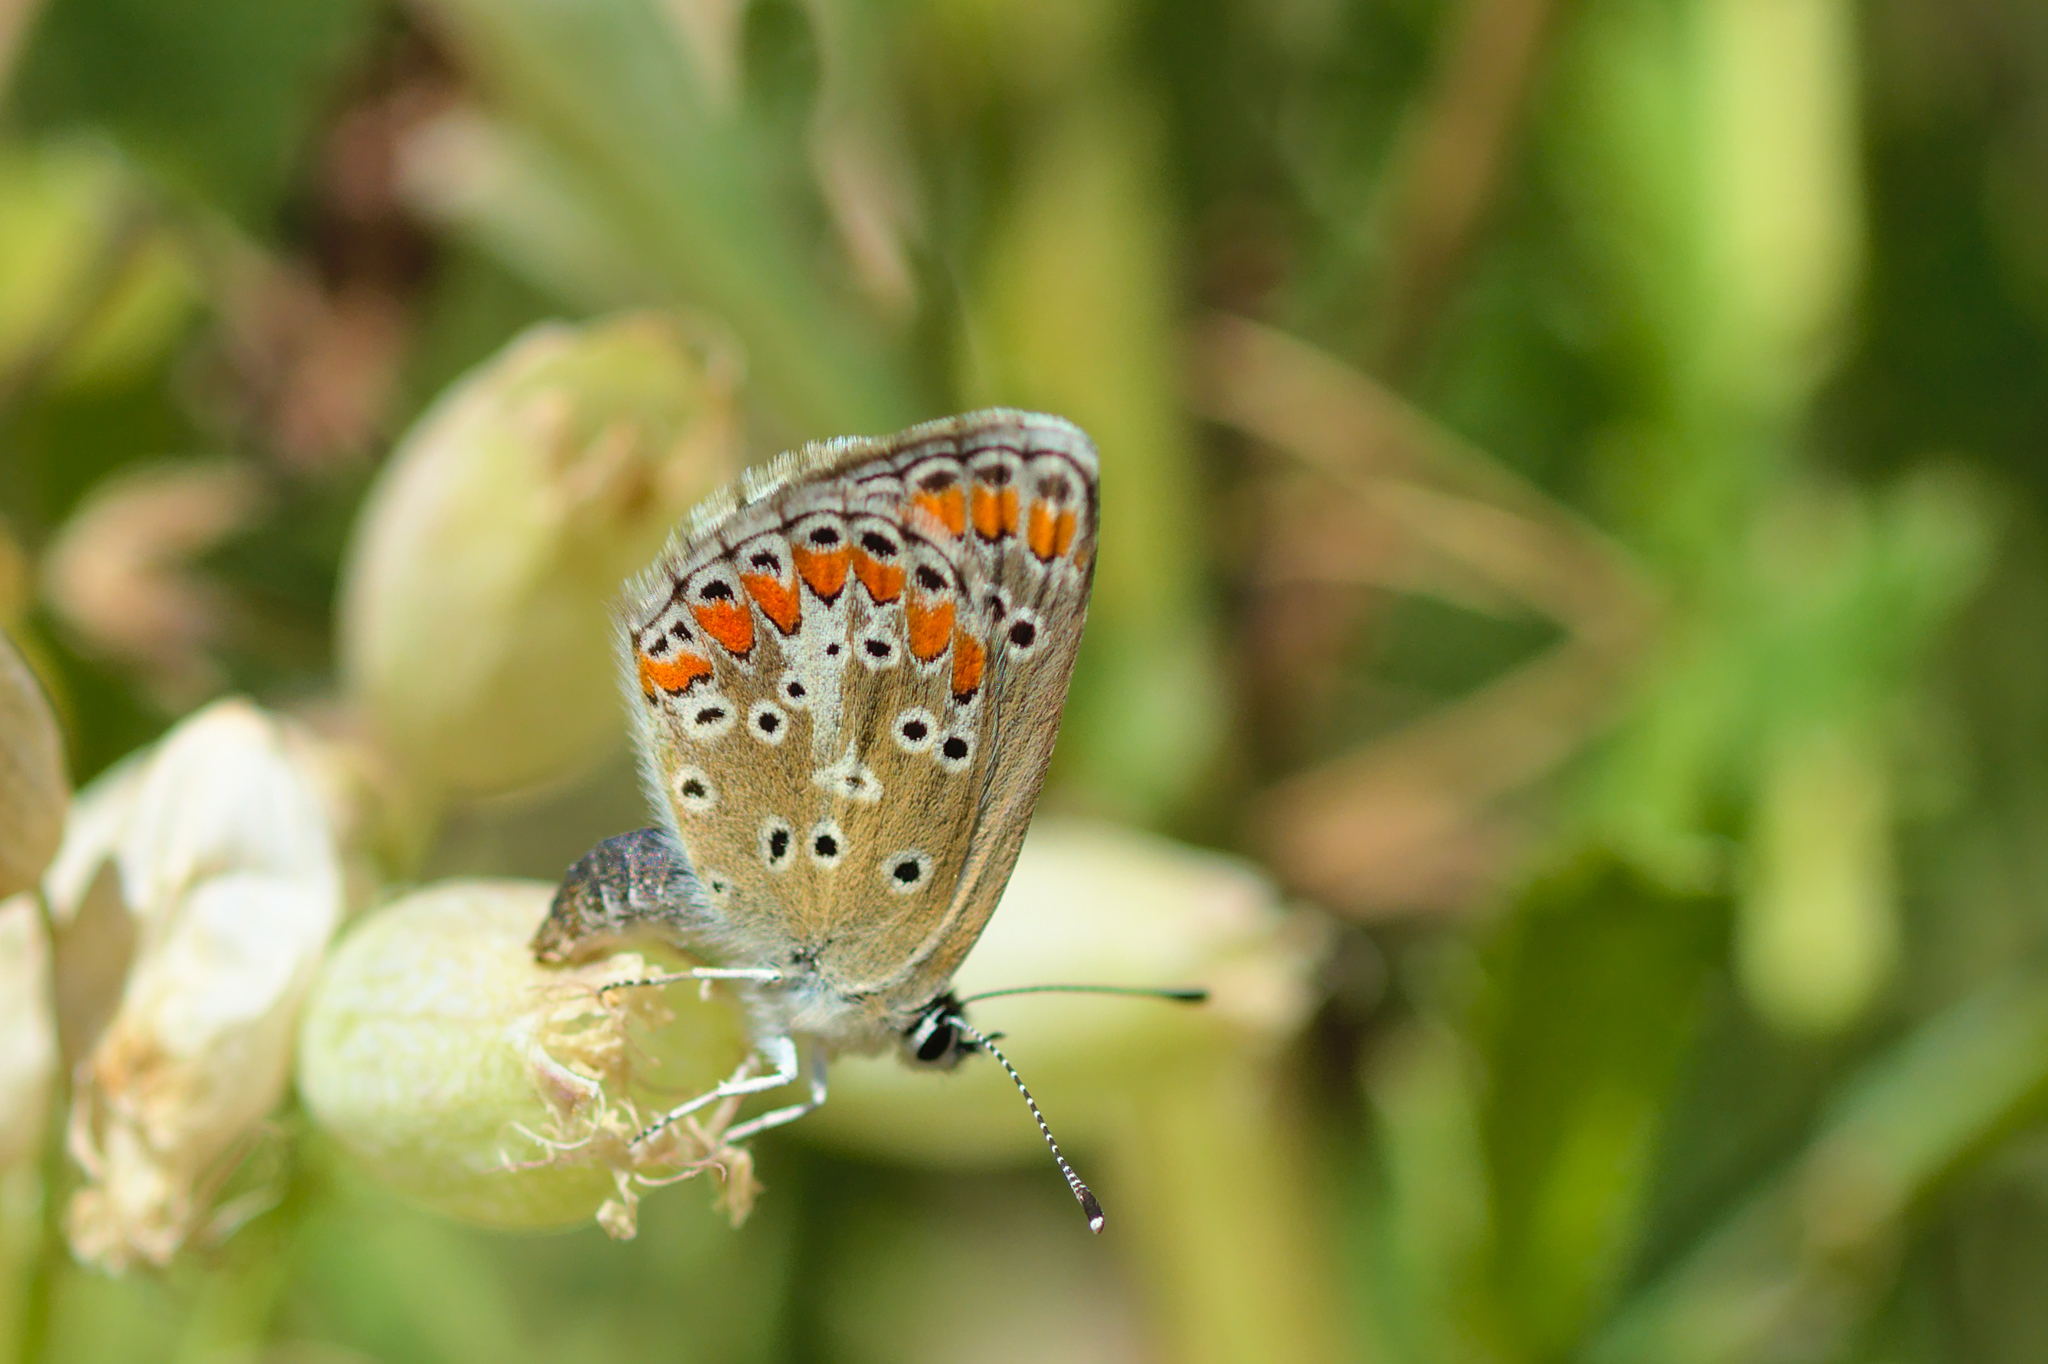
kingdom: Animalia
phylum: Arthropoda
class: Insecta
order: Lepidoptera
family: Lycaenidae
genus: Aricia
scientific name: Aricia agestis
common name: Brown argus
